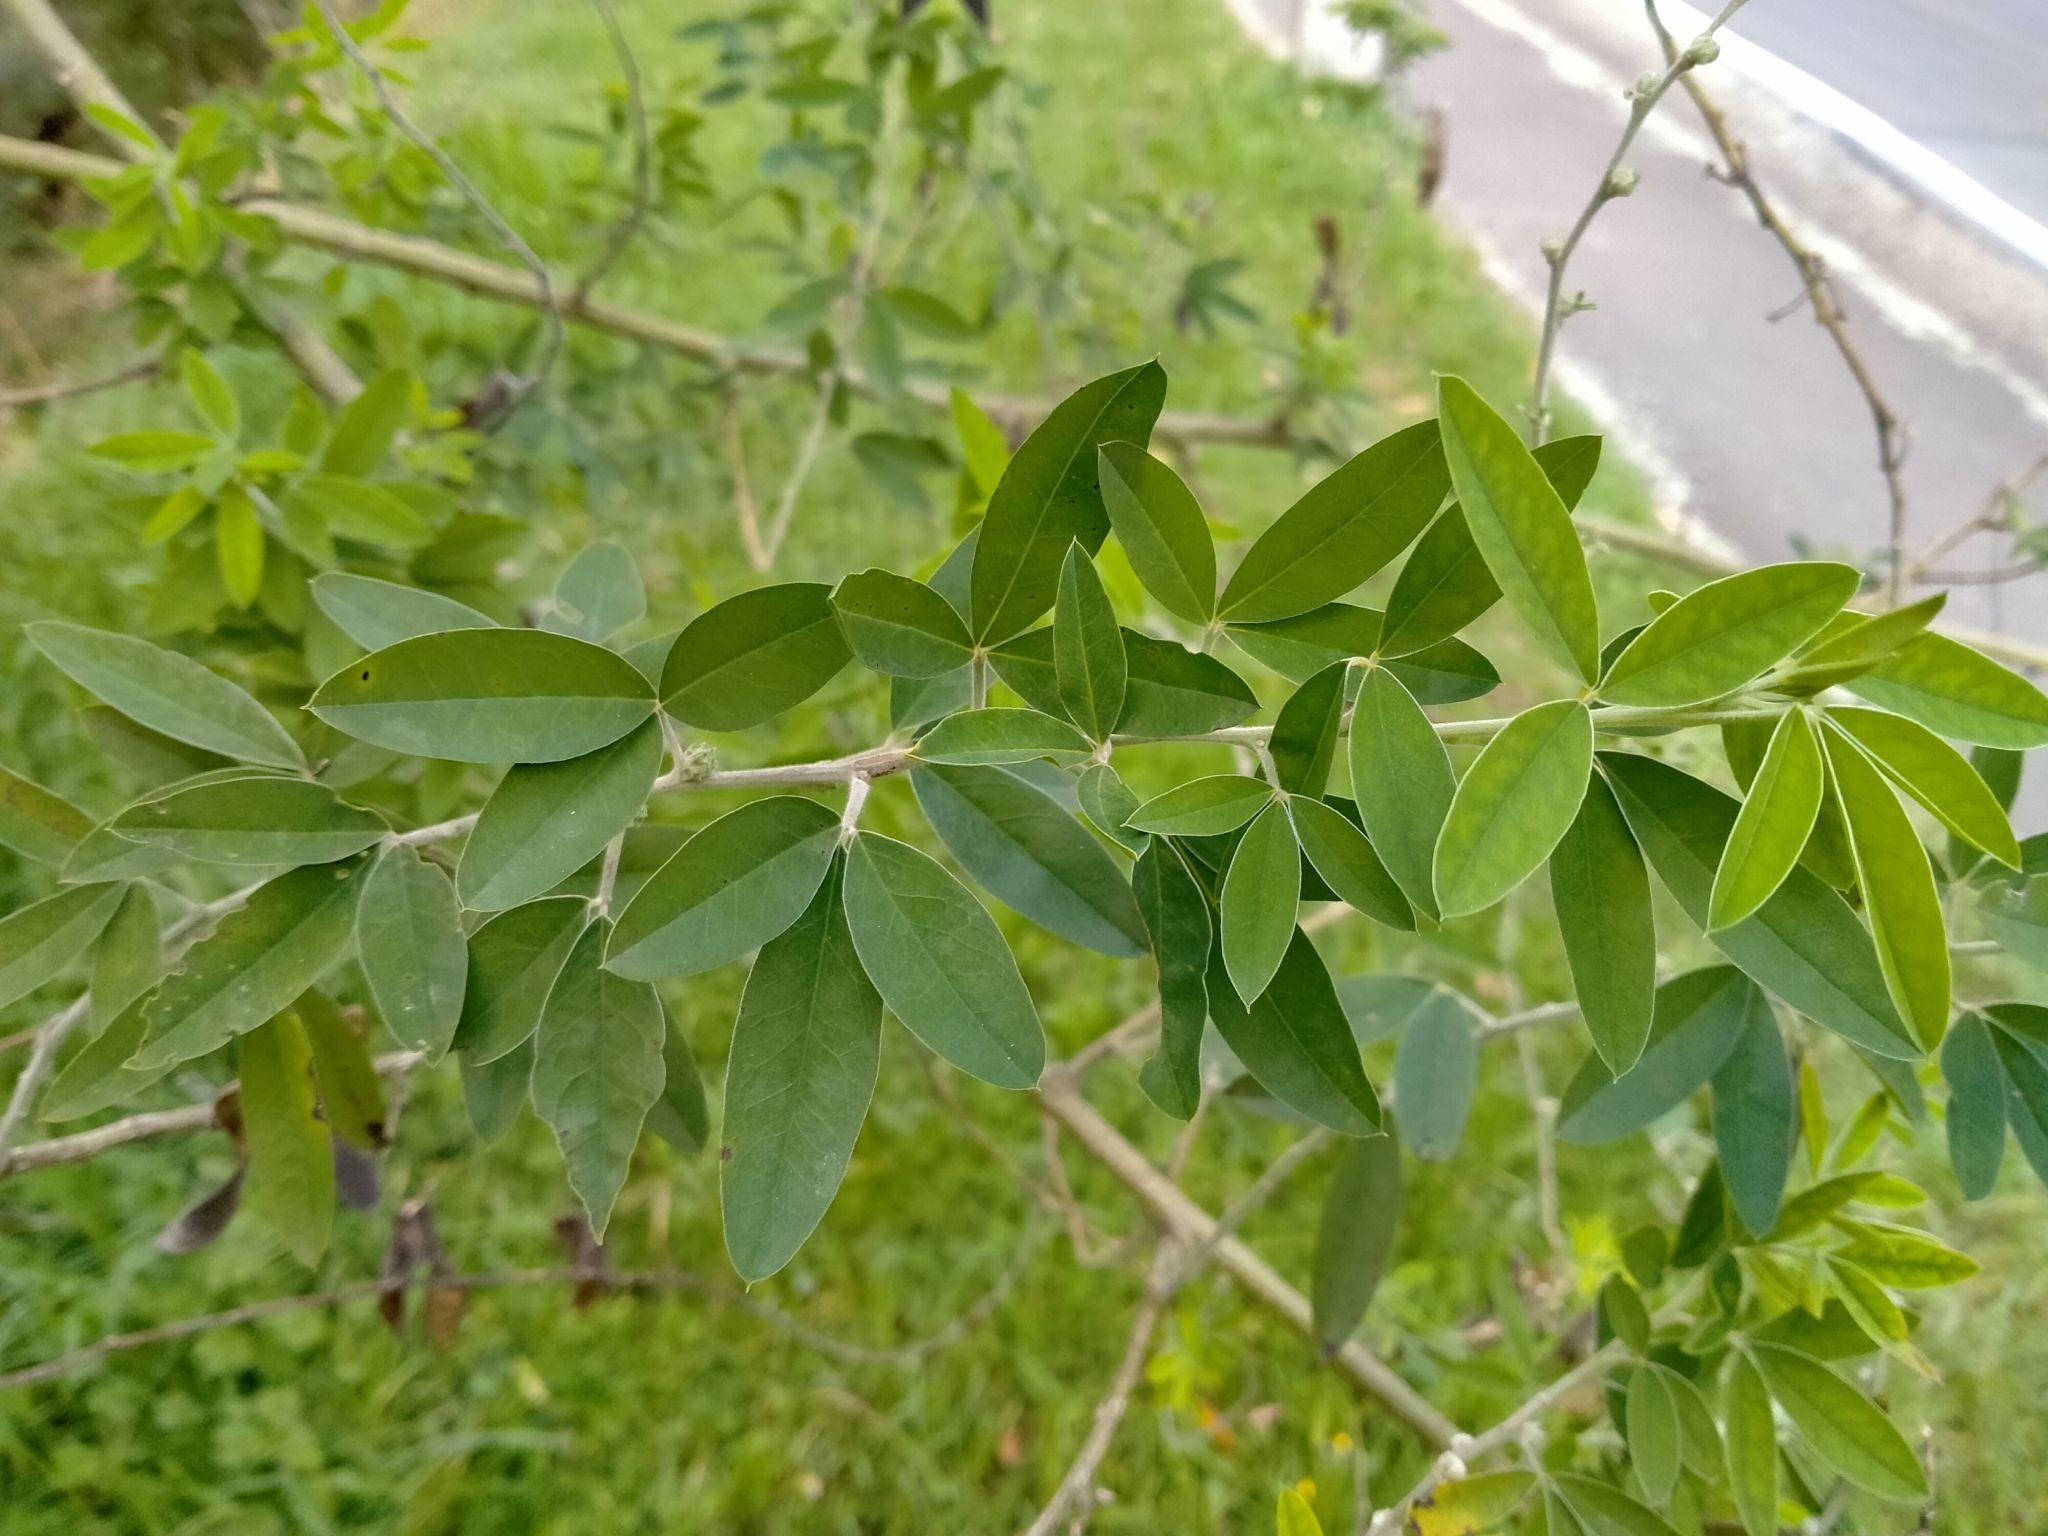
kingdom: Plantae
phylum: Tracheophyta
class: Magnoliopsida
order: Fabales
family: Fabaceae
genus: Chamaecytisus
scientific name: Chamaecytisus prolifer
